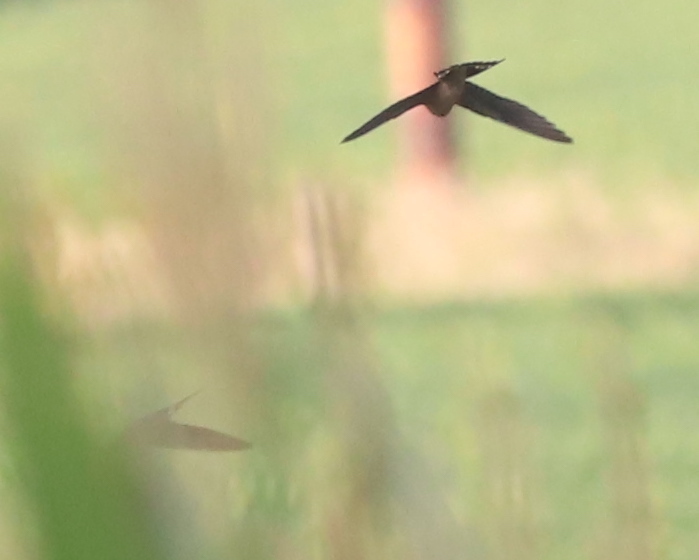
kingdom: Animalia
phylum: Chordata
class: Aves
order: Passeriformes
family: Hirundinidae
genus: Hirundo
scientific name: Hirundo rustica
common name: Barn swallow
